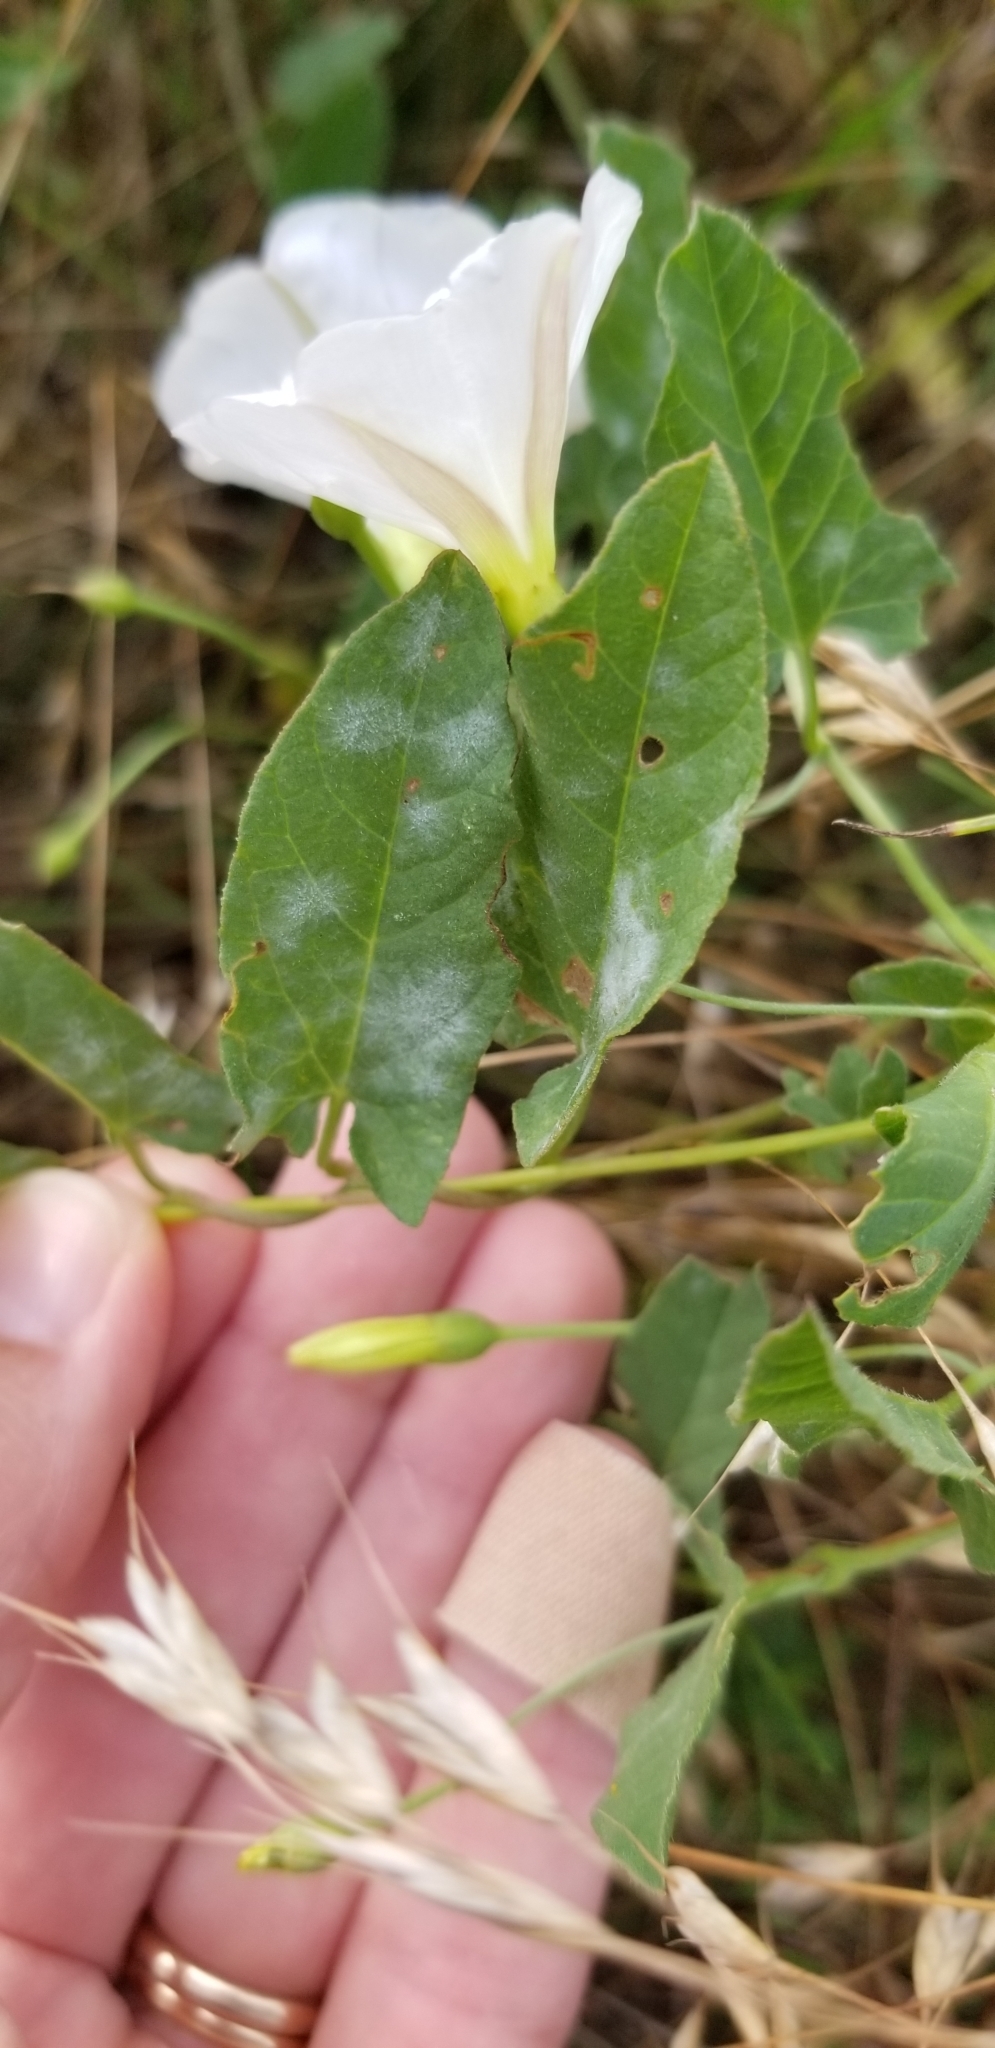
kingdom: Plantae
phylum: Tracheophyta
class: Magnoliopsida
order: Solanales
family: Convolvulaceae
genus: Convolvulus
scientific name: Convolvulus arvensis
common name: Field bindweed
